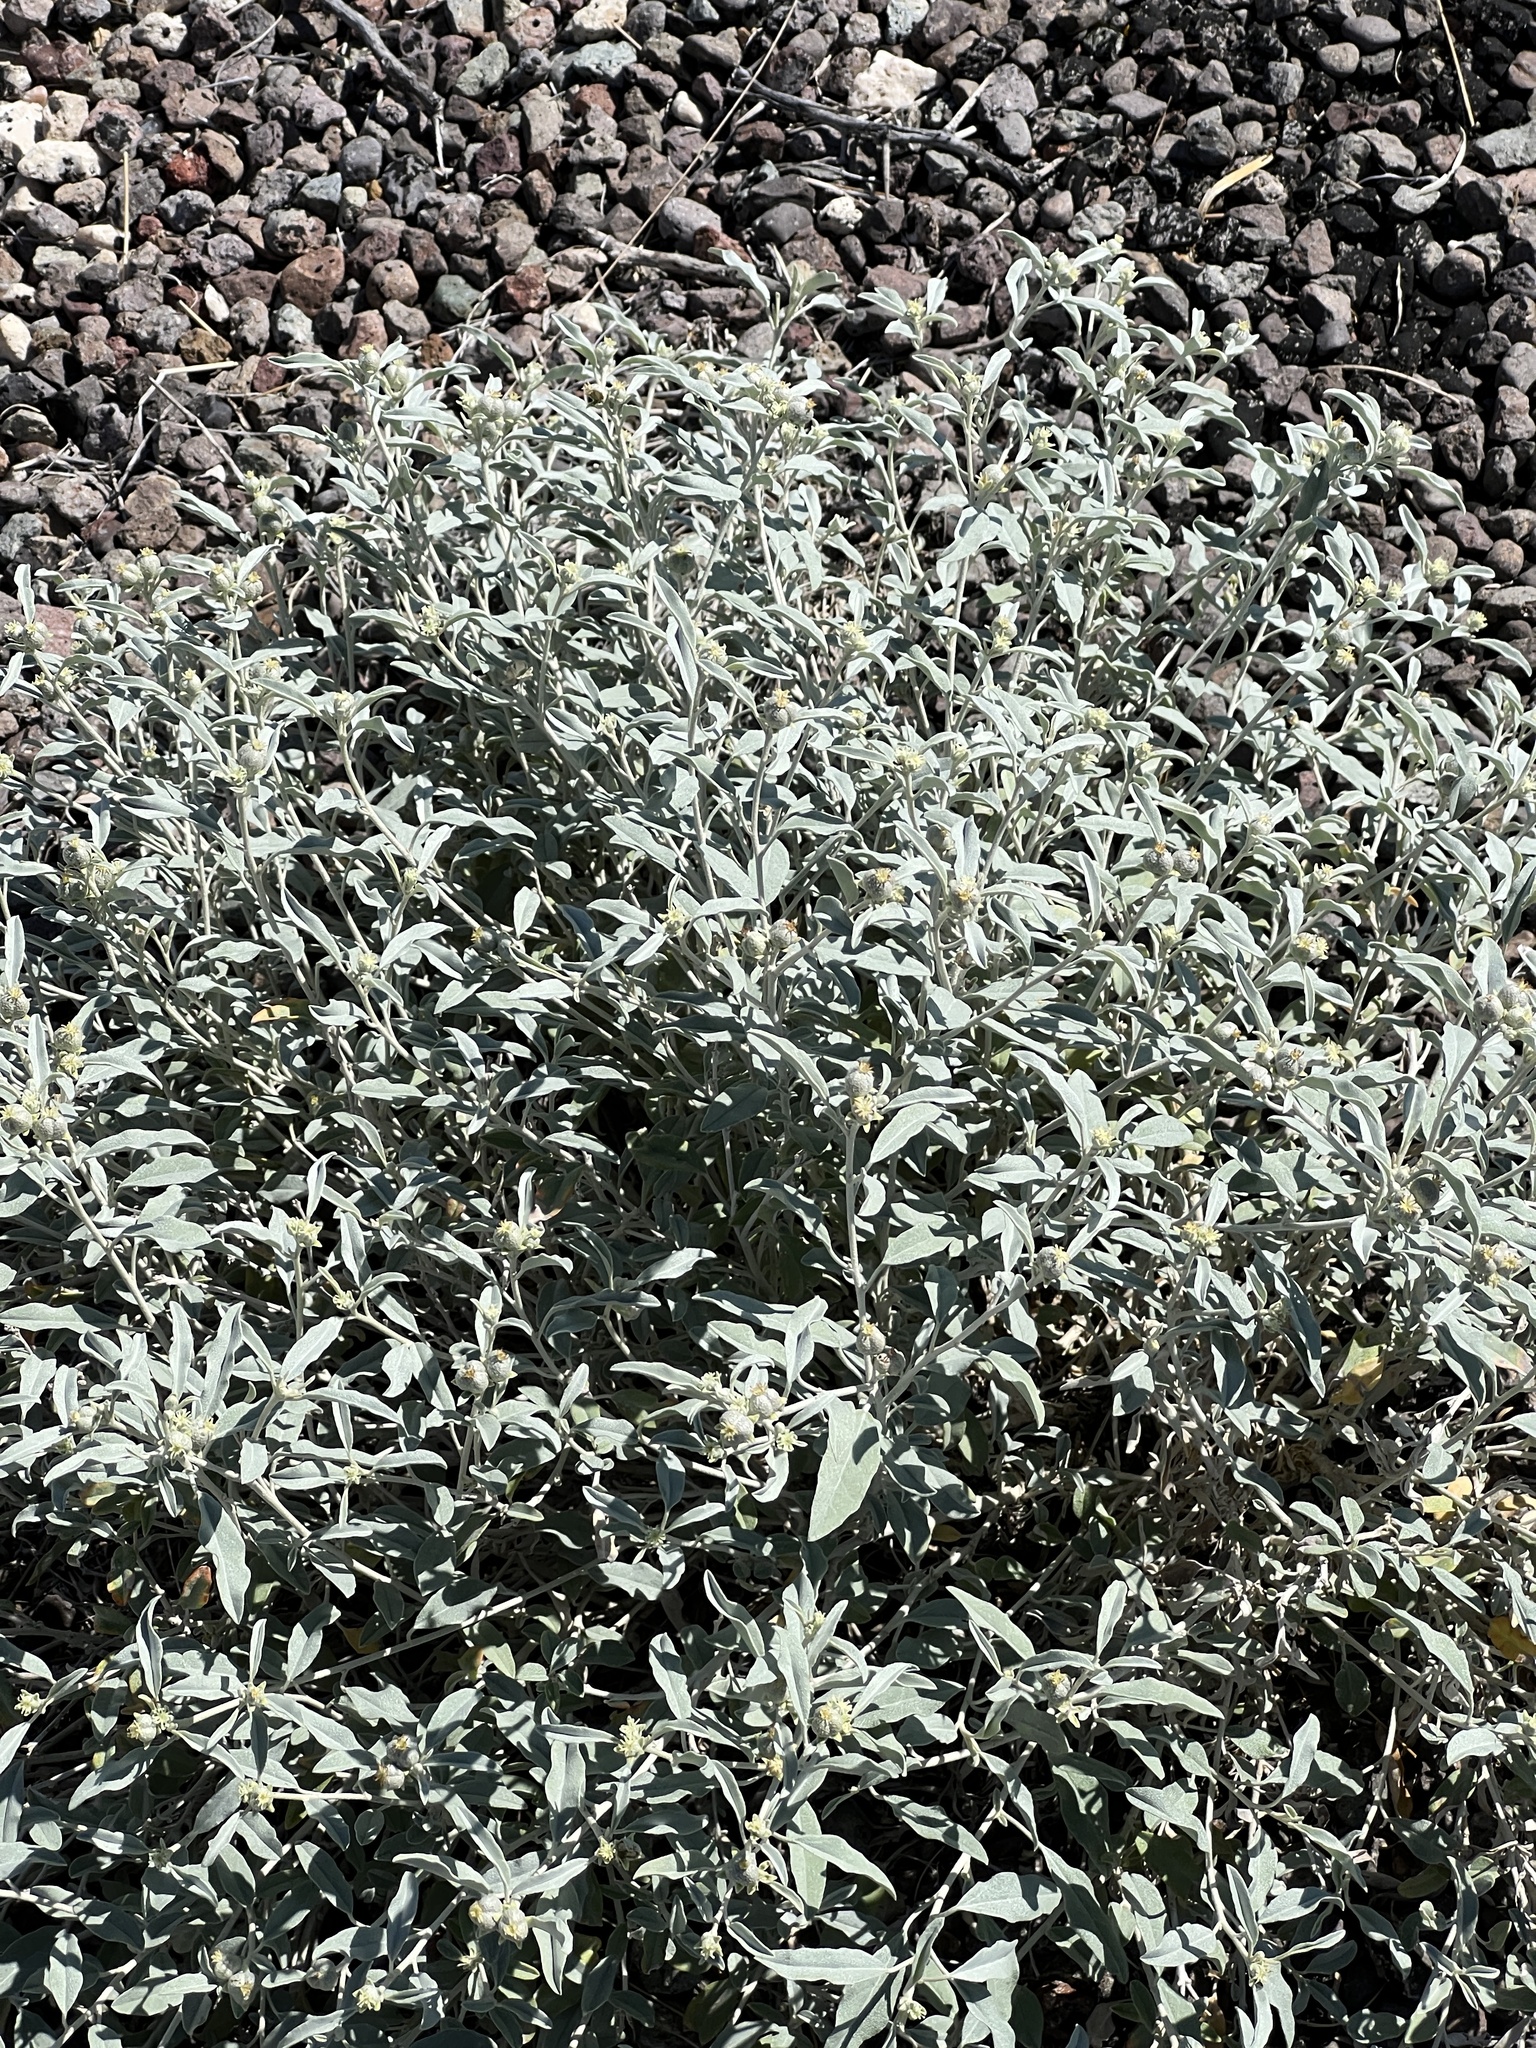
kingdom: Plantae
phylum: Tracheophyta
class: Magnoliopsida
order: Malpighiales
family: Euphorbiaceae
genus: Croton
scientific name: Croton dioicus
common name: Grassland croton
